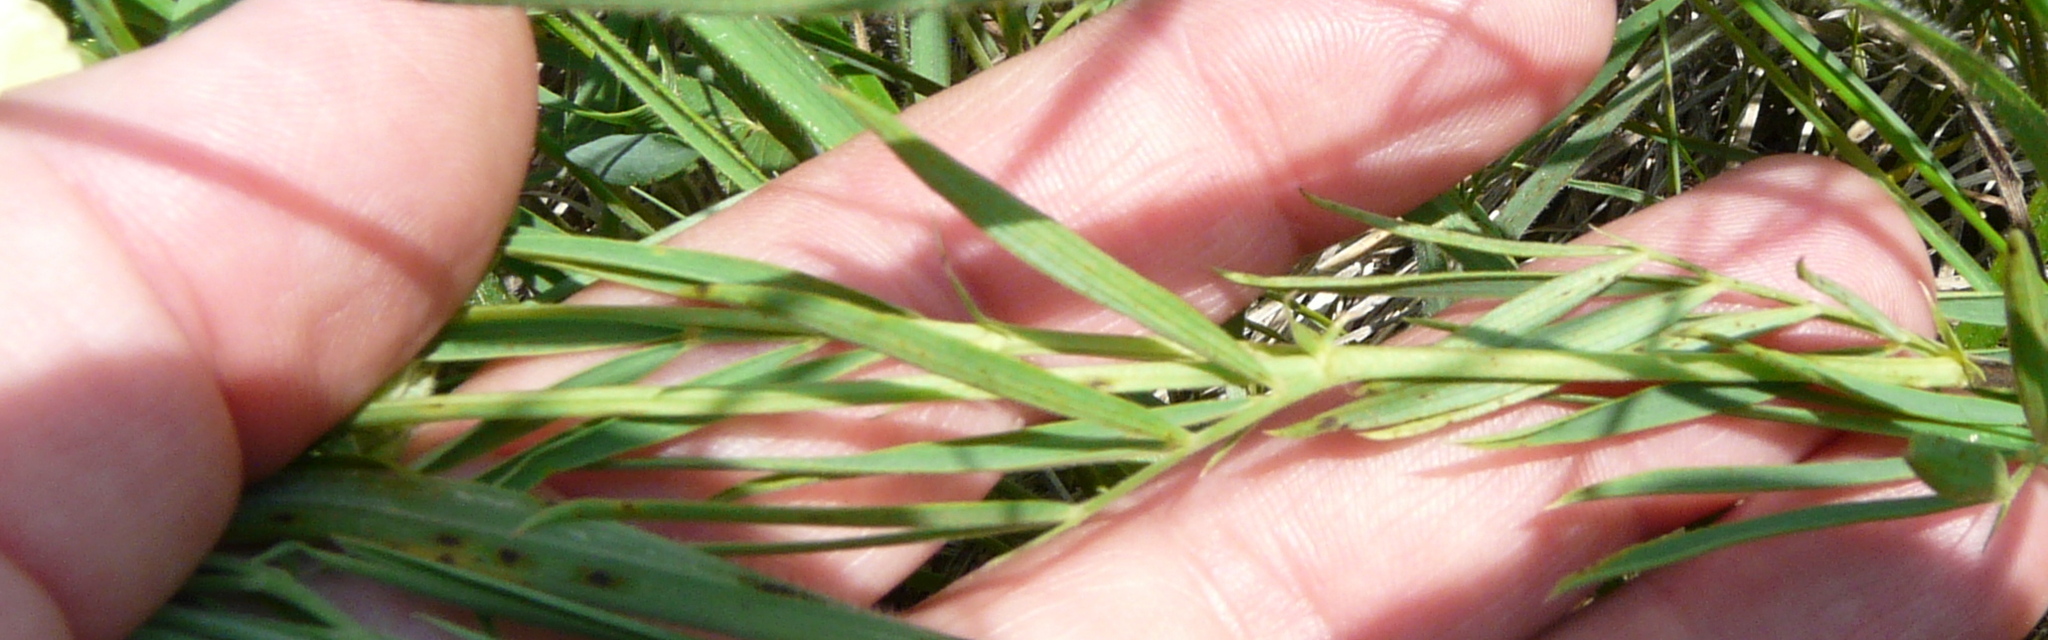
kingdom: Plantae
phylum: Tracheophyta
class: Magnoliopsida
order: Fabales
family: Fabaceae
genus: Lathyrus
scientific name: Lathyrus pallescens
